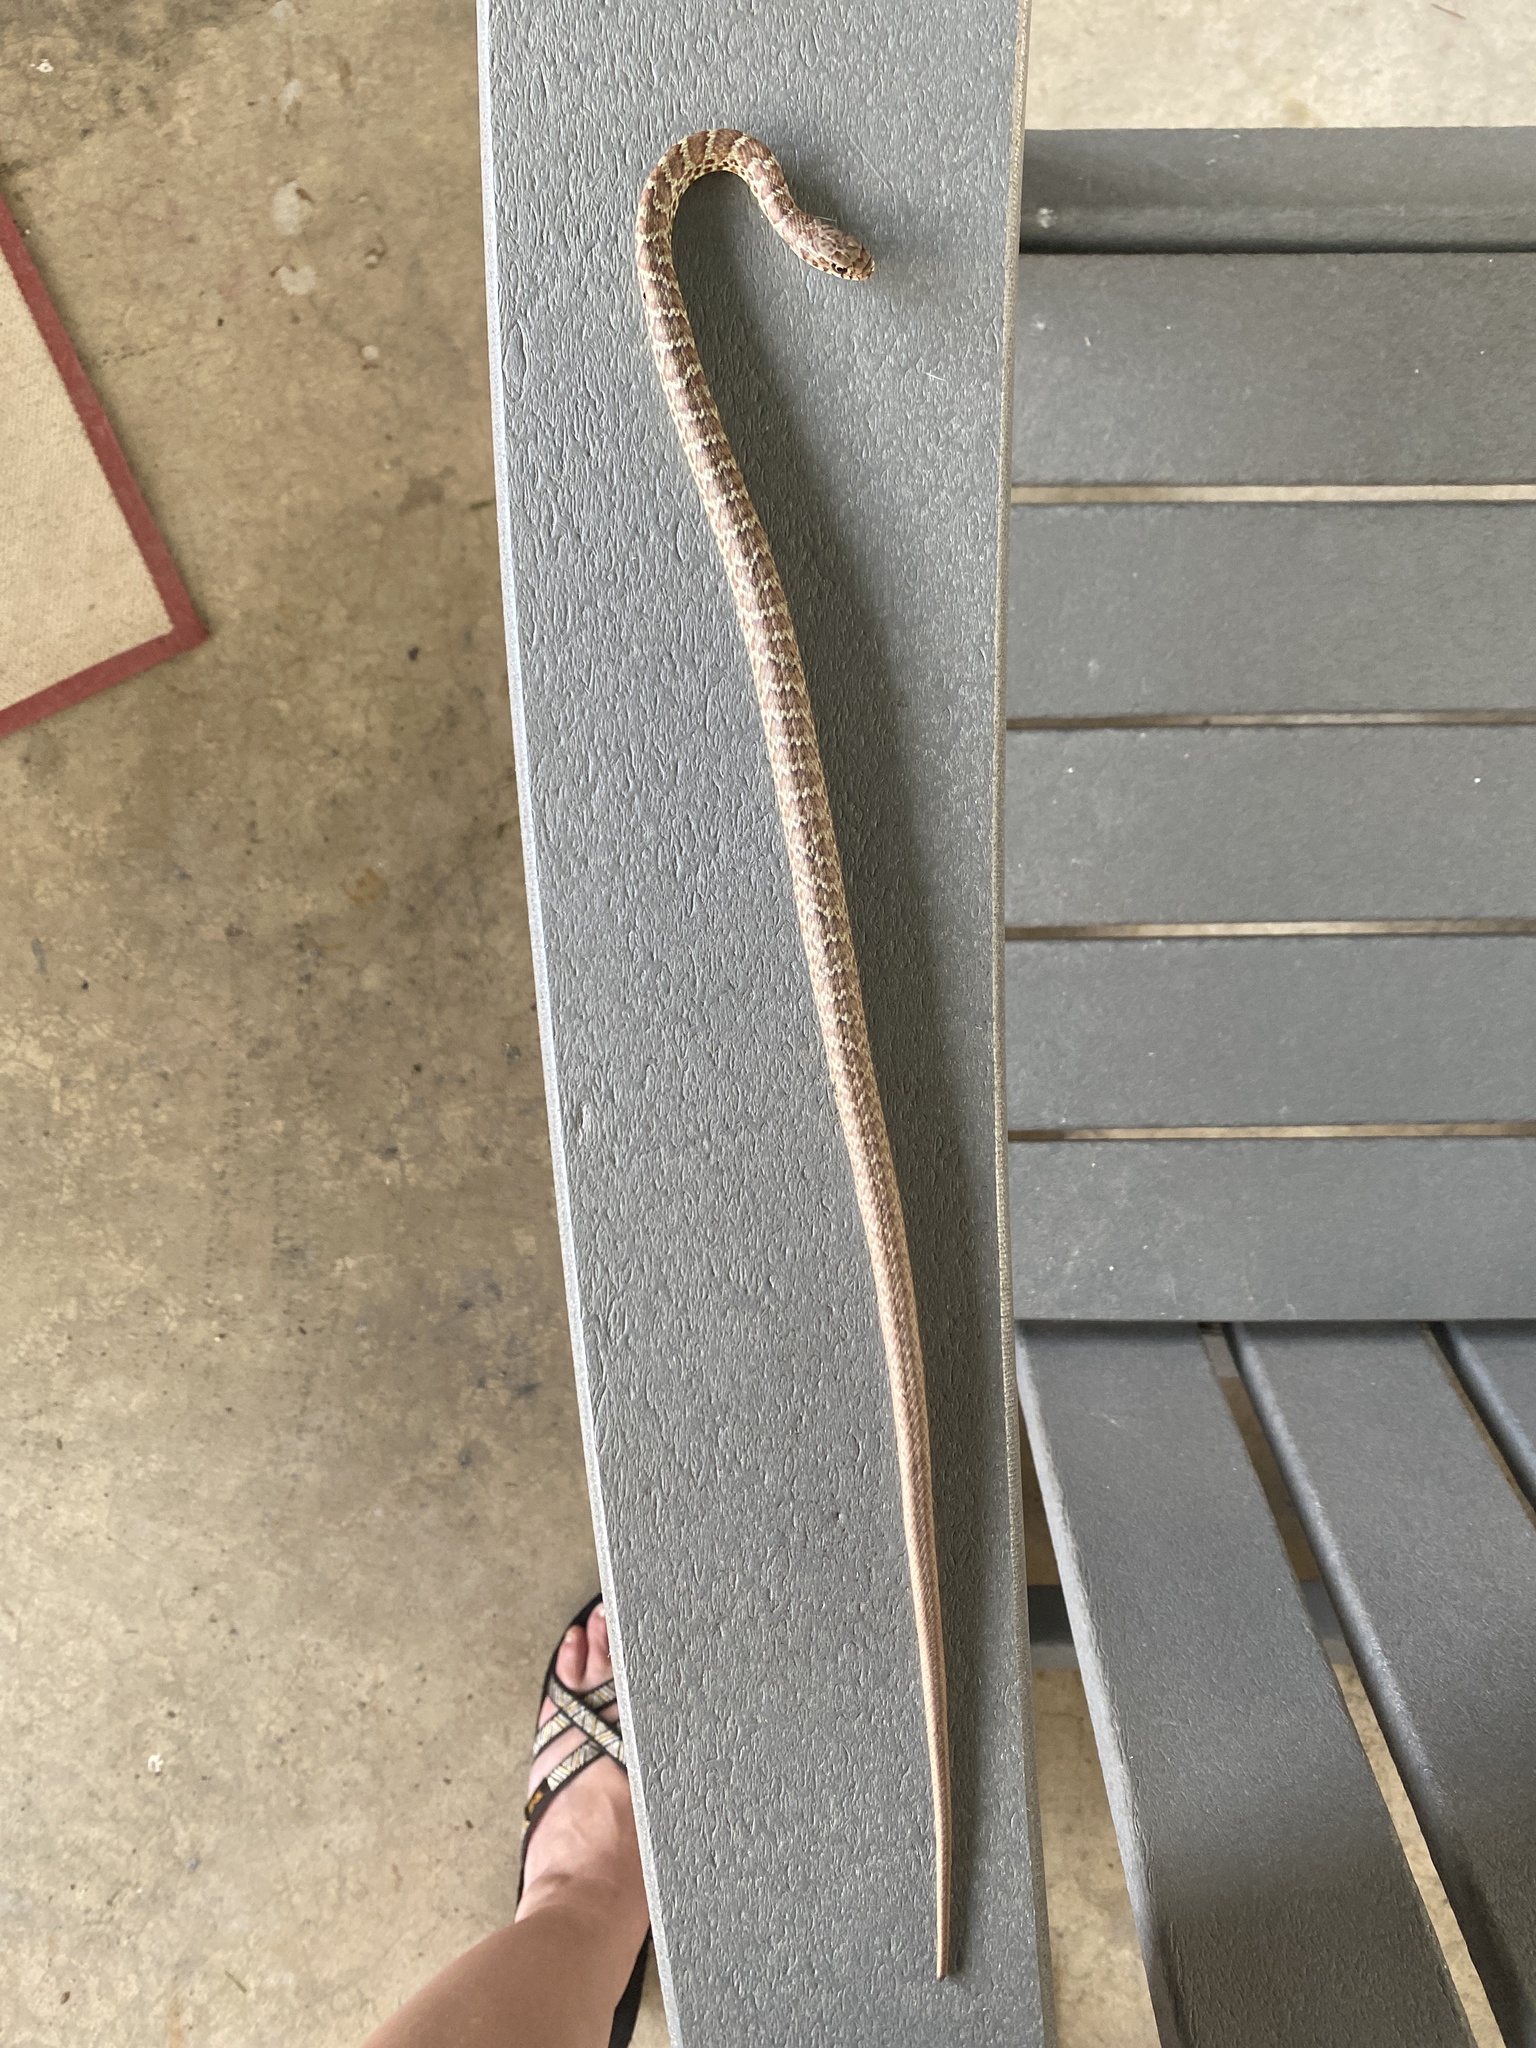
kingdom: Animalia
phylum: Chordata
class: Squamata
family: Colubridae
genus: Coluber
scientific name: Coluber constrictor
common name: Eastern racer
